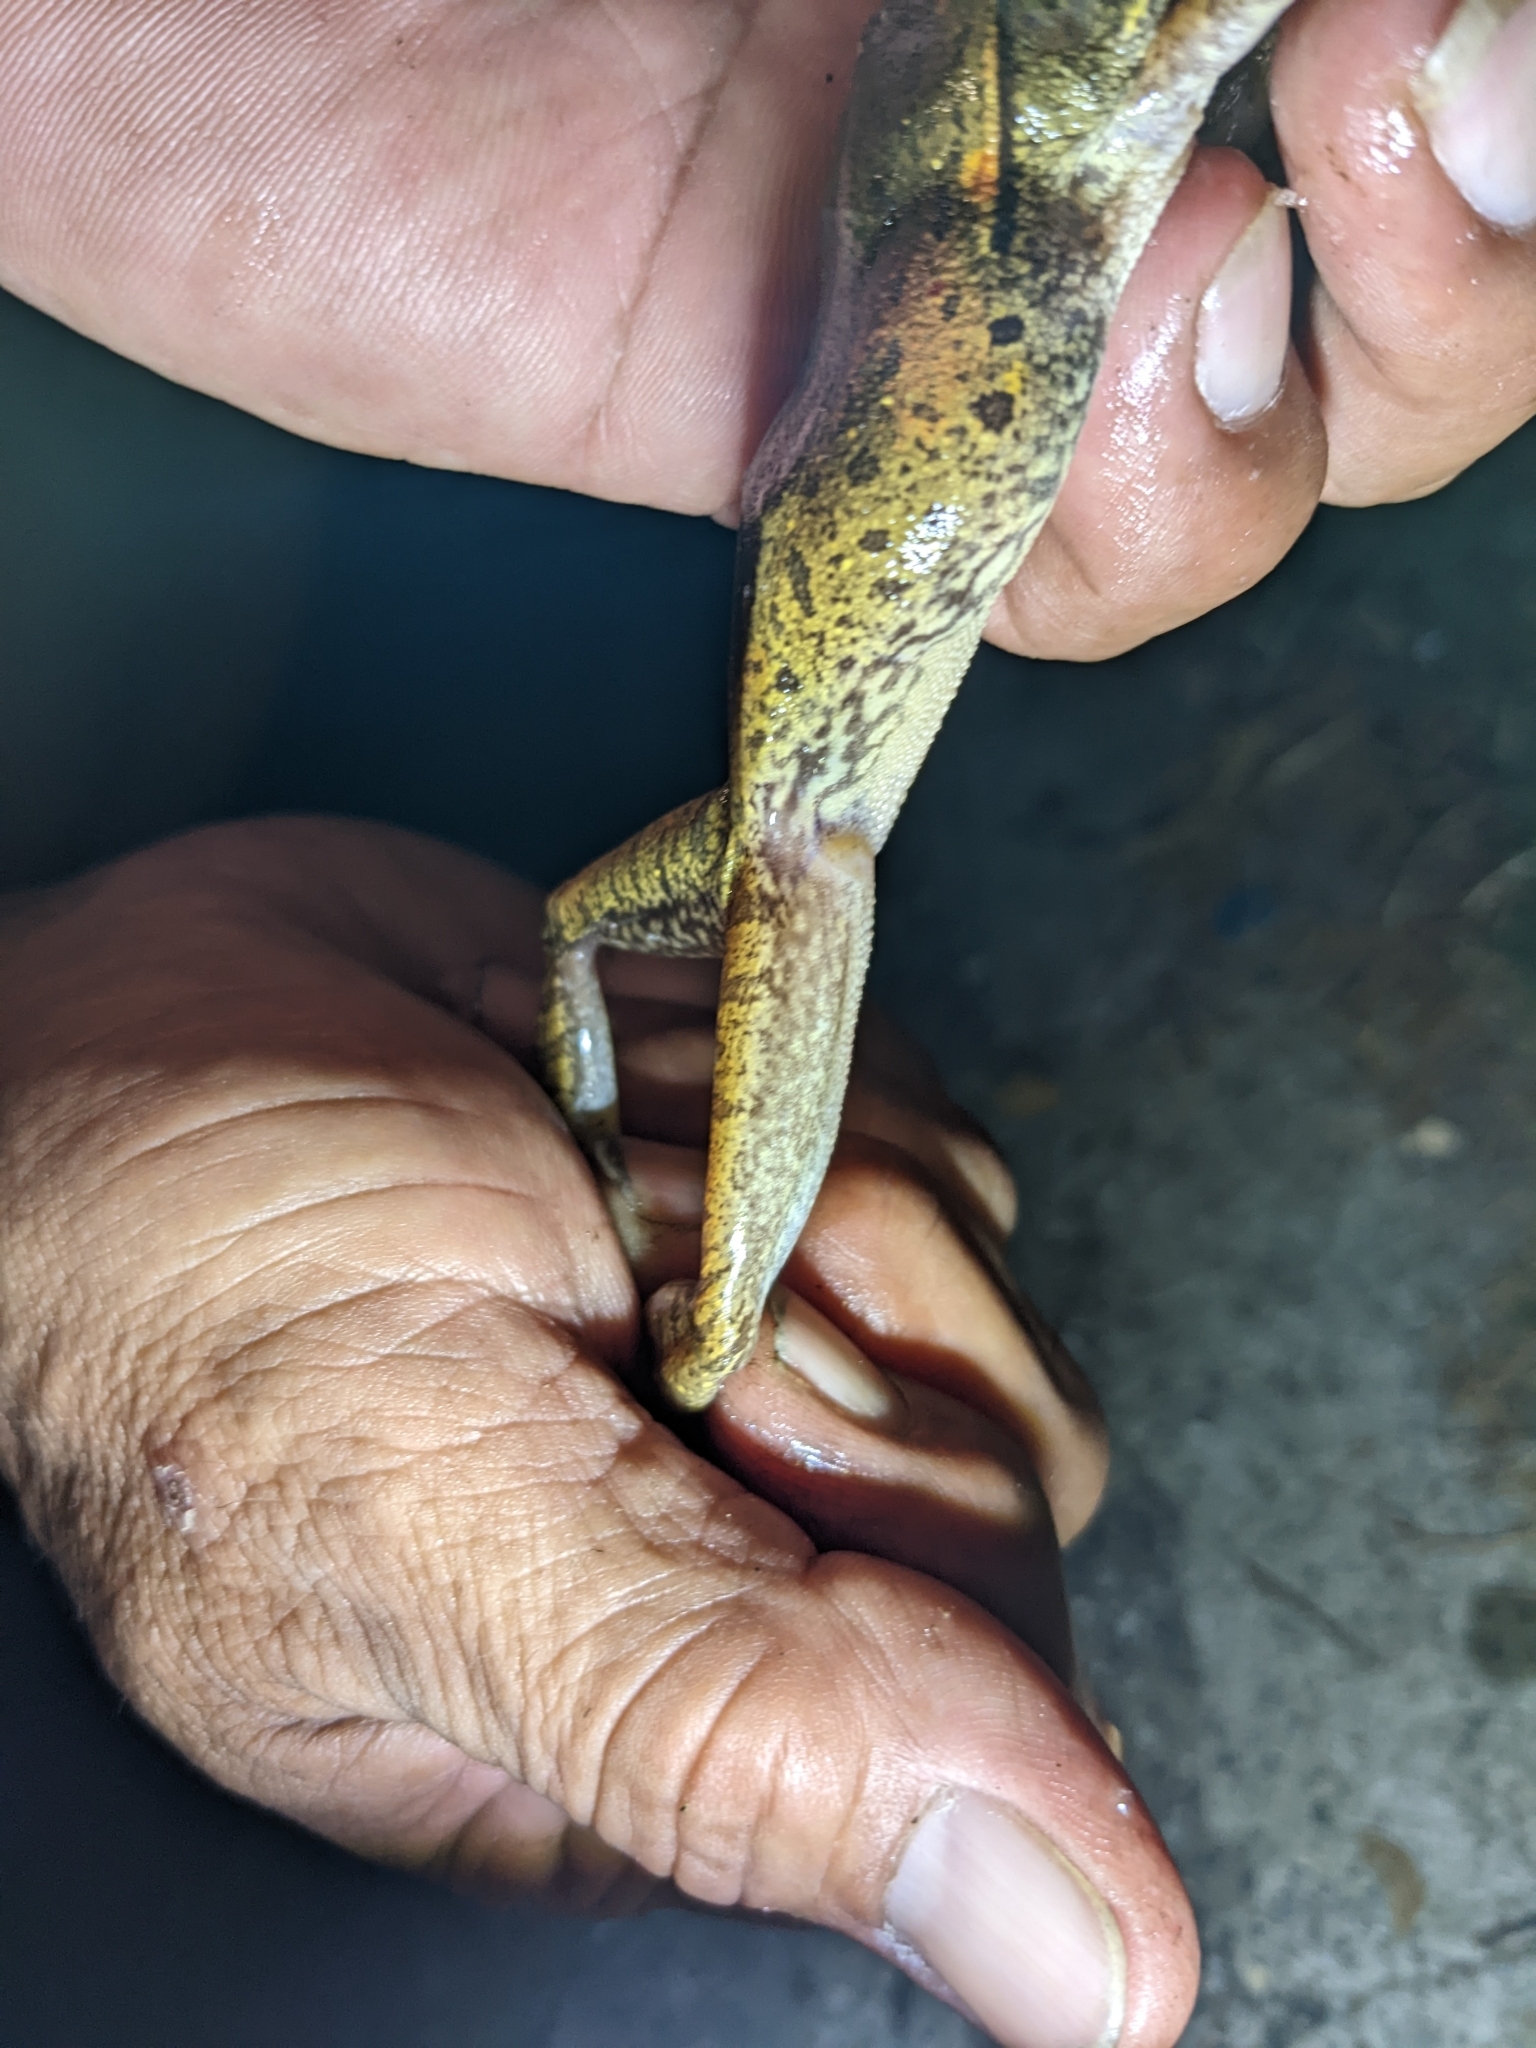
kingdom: Animalia
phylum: Chordata
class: Amphibia
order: Anura
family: Rhacophoridae
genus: Polypedates
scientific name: Polypedates megacephalus
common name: Hong kong whipping frog
